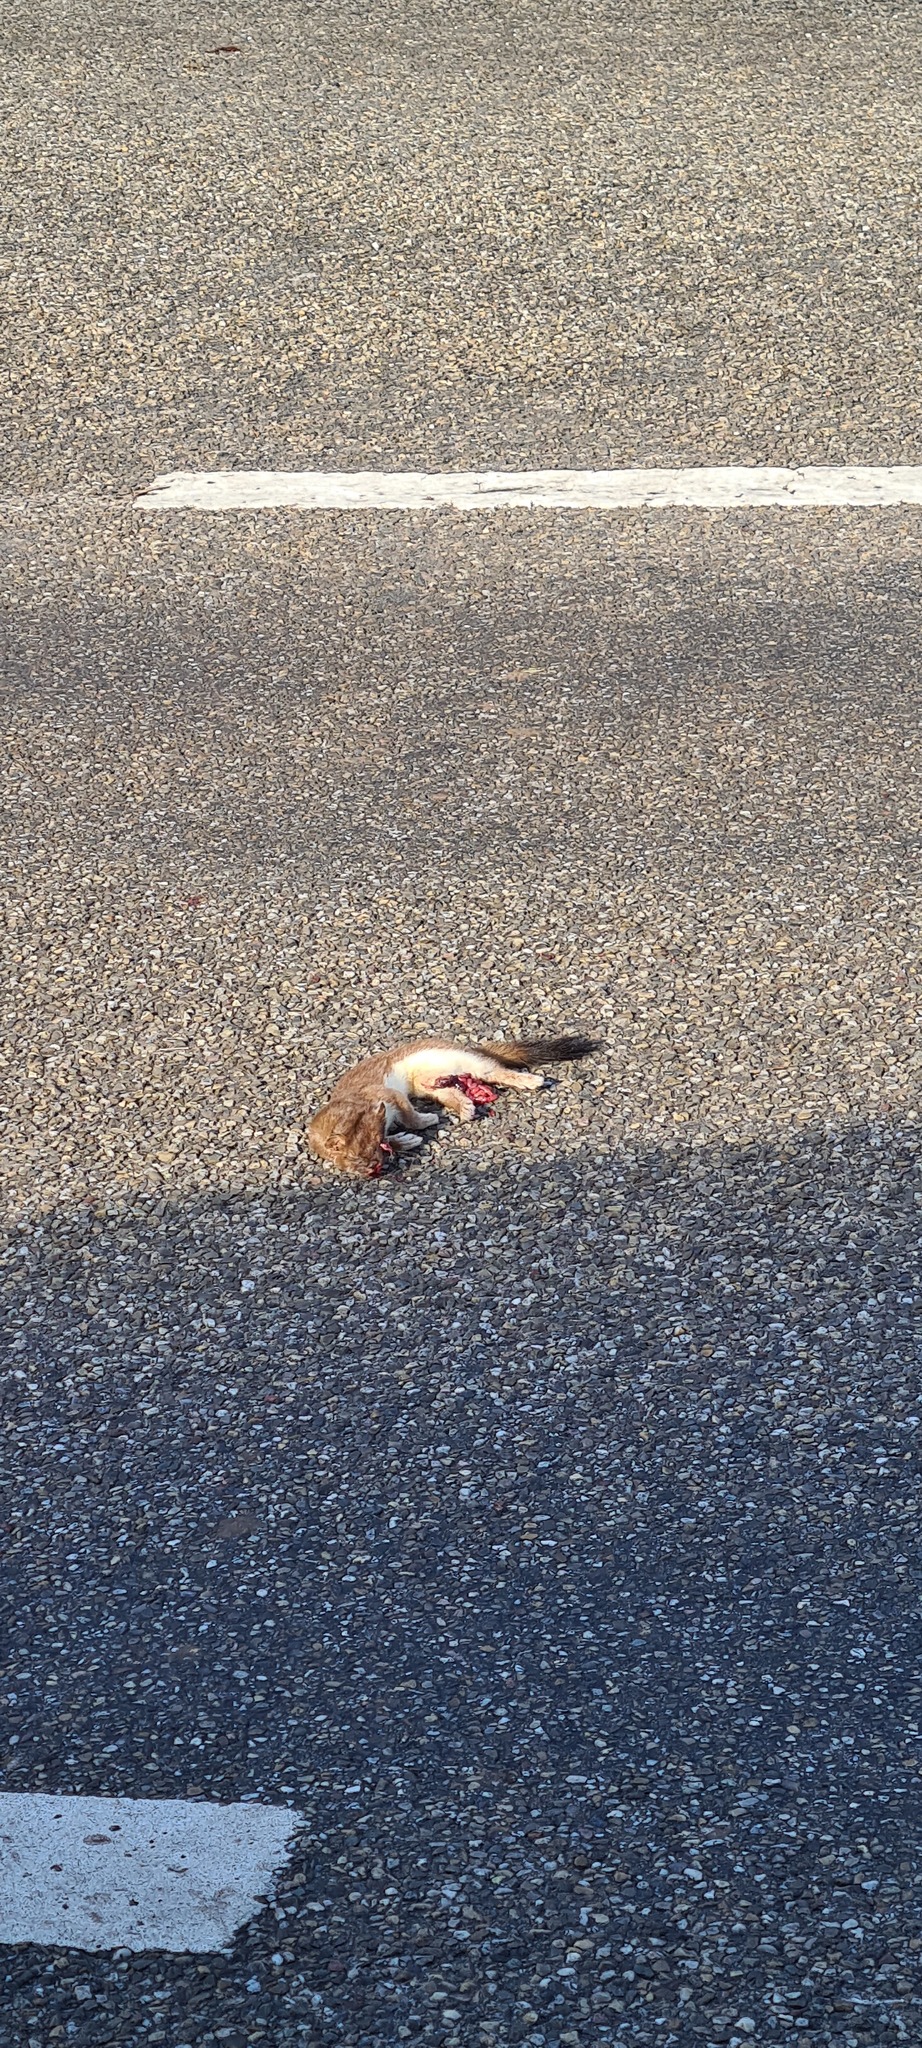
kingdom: Animalia
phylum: Chordata
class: Mammalia
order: Carnivora
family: Mustelidae
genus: Mustela
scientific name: Mustela erminea
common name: Stoat
